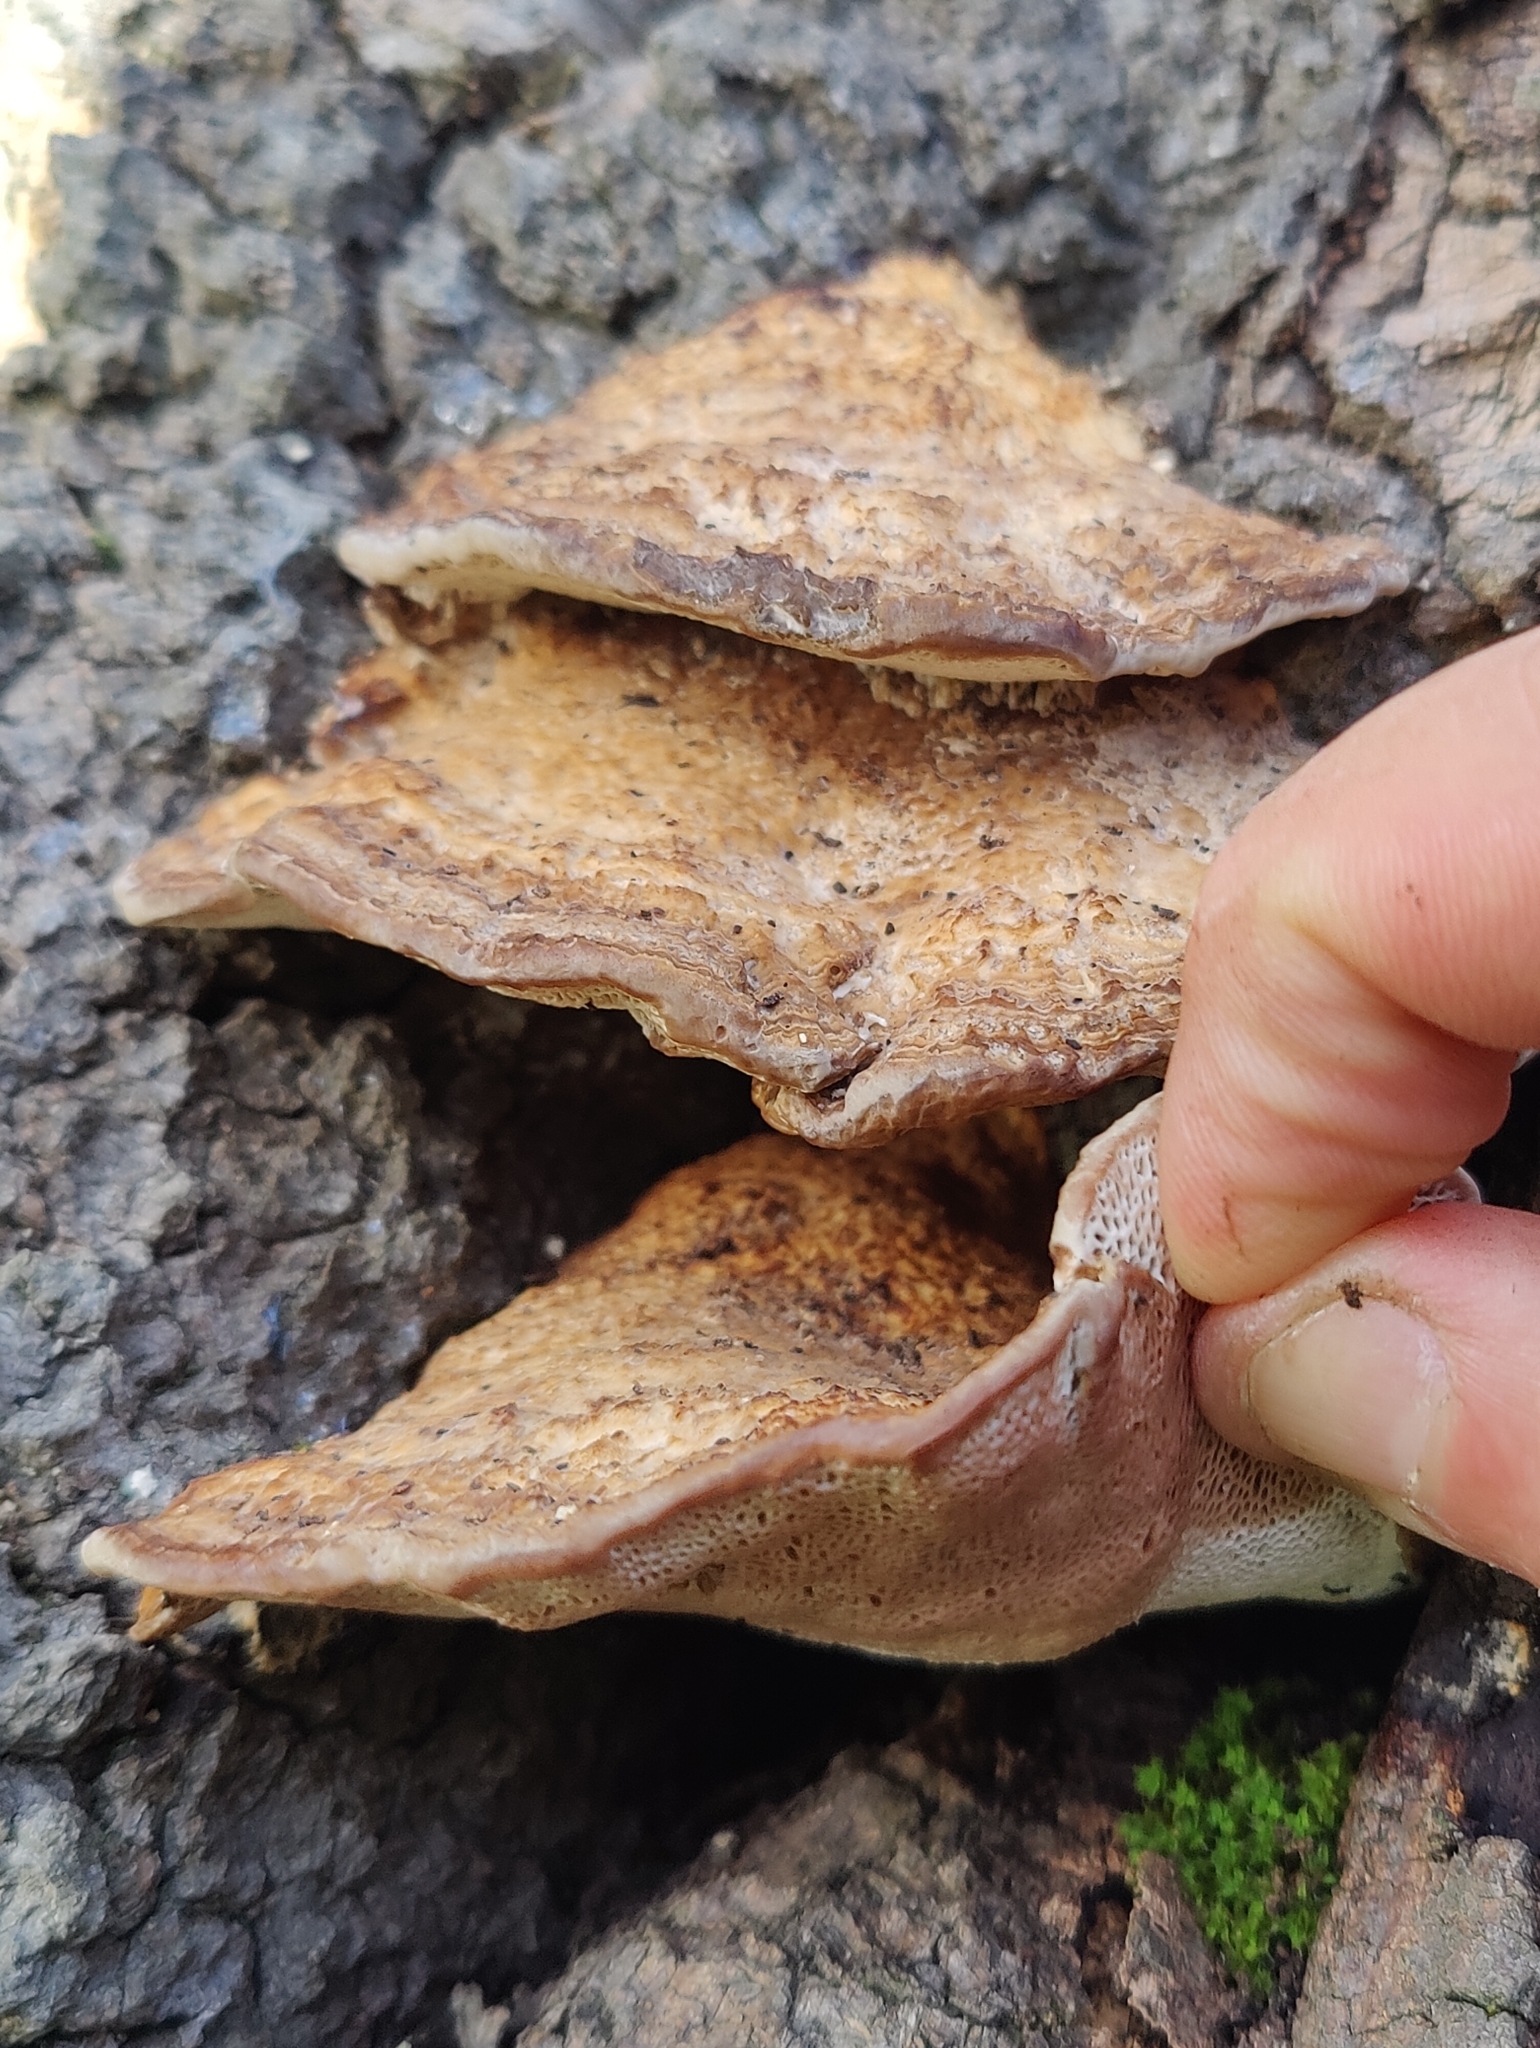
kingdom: Fungi
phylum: Basidiomycota
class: Agaricomycetes
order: Polyporales
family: Polyporaceae
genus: Daedaleopsis
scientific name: Daedaleopsis confragosa
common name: Blushing bracket
